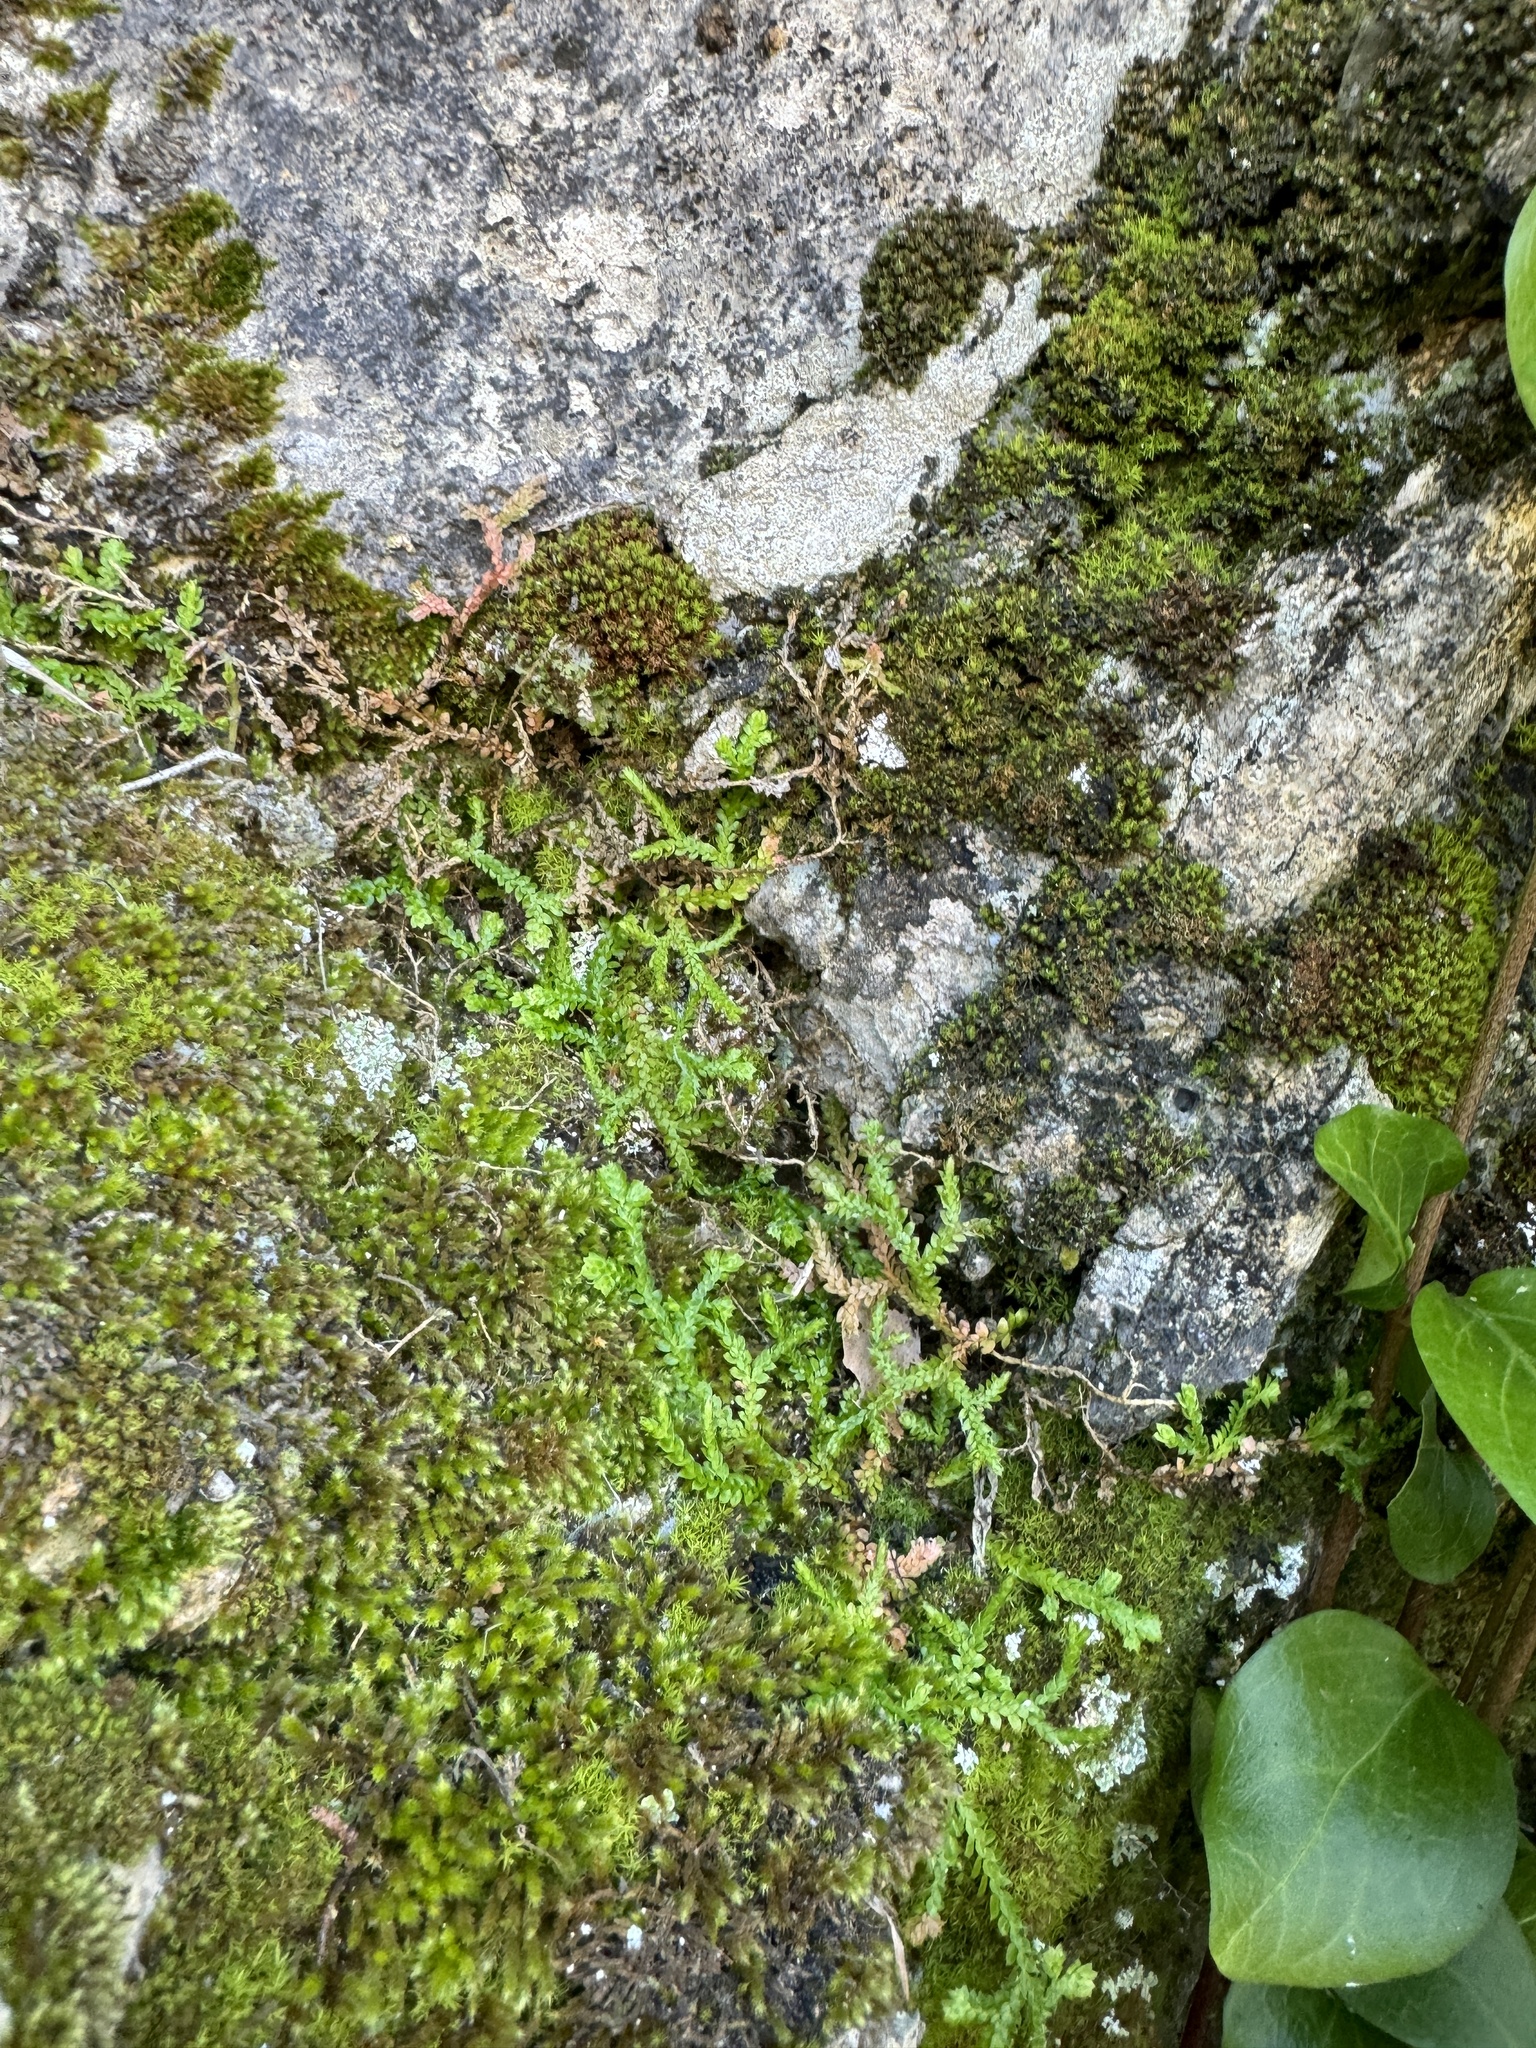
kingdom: Plantae
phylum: Tracheophyta
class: Lycopodiopsida
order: Selaginellales
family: Selaginellaceae
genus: Selaginella
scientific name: Selaginella denticulata
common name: Toothed-leaved clubmoss
